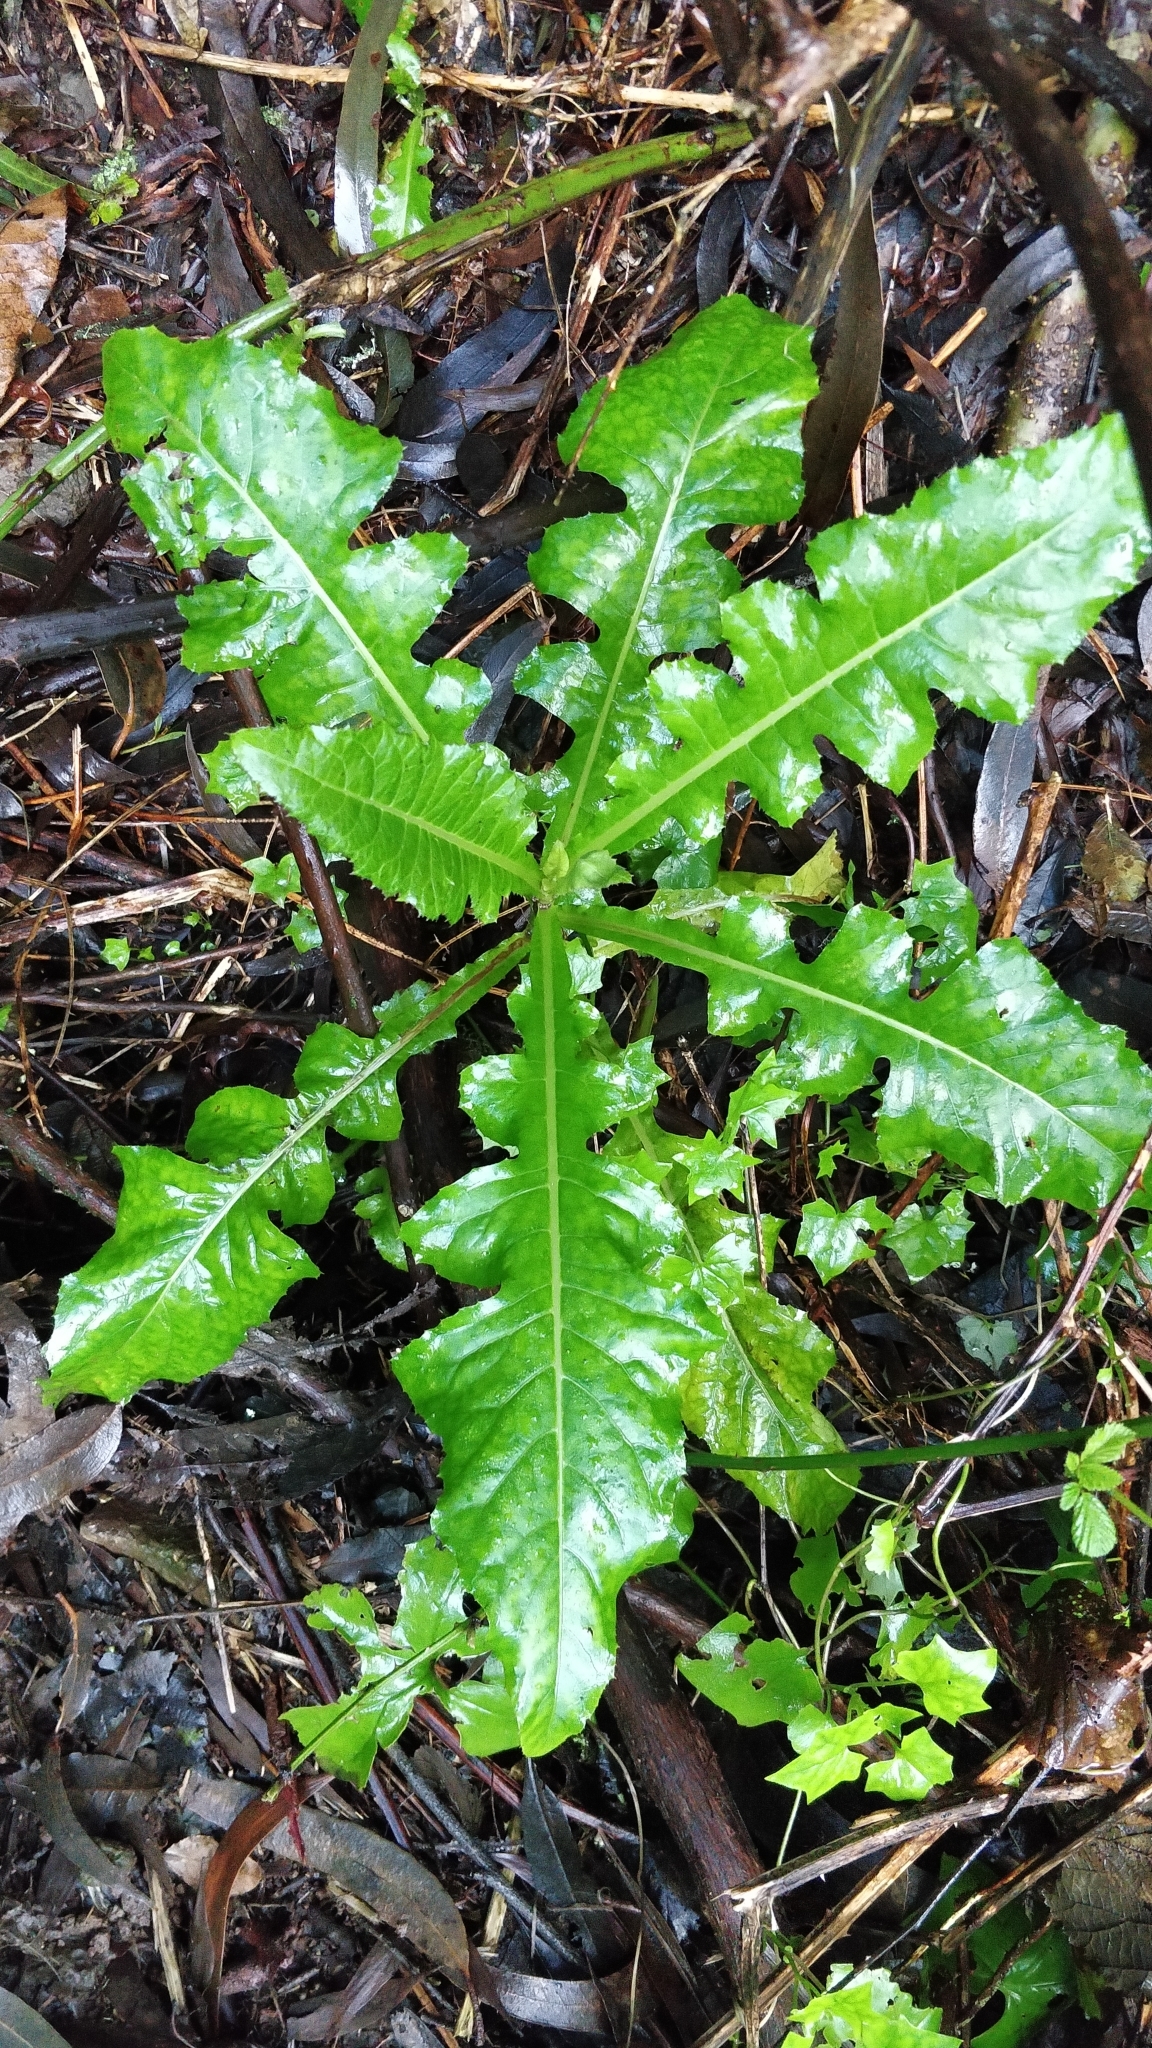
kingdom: Plantae
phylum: Tracheophyta
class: Magnoliopsida
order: Asterales
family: Asteraceae
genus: Sonchus
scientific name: Sonchus fruticosus
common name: Shrubby sow-thistle
